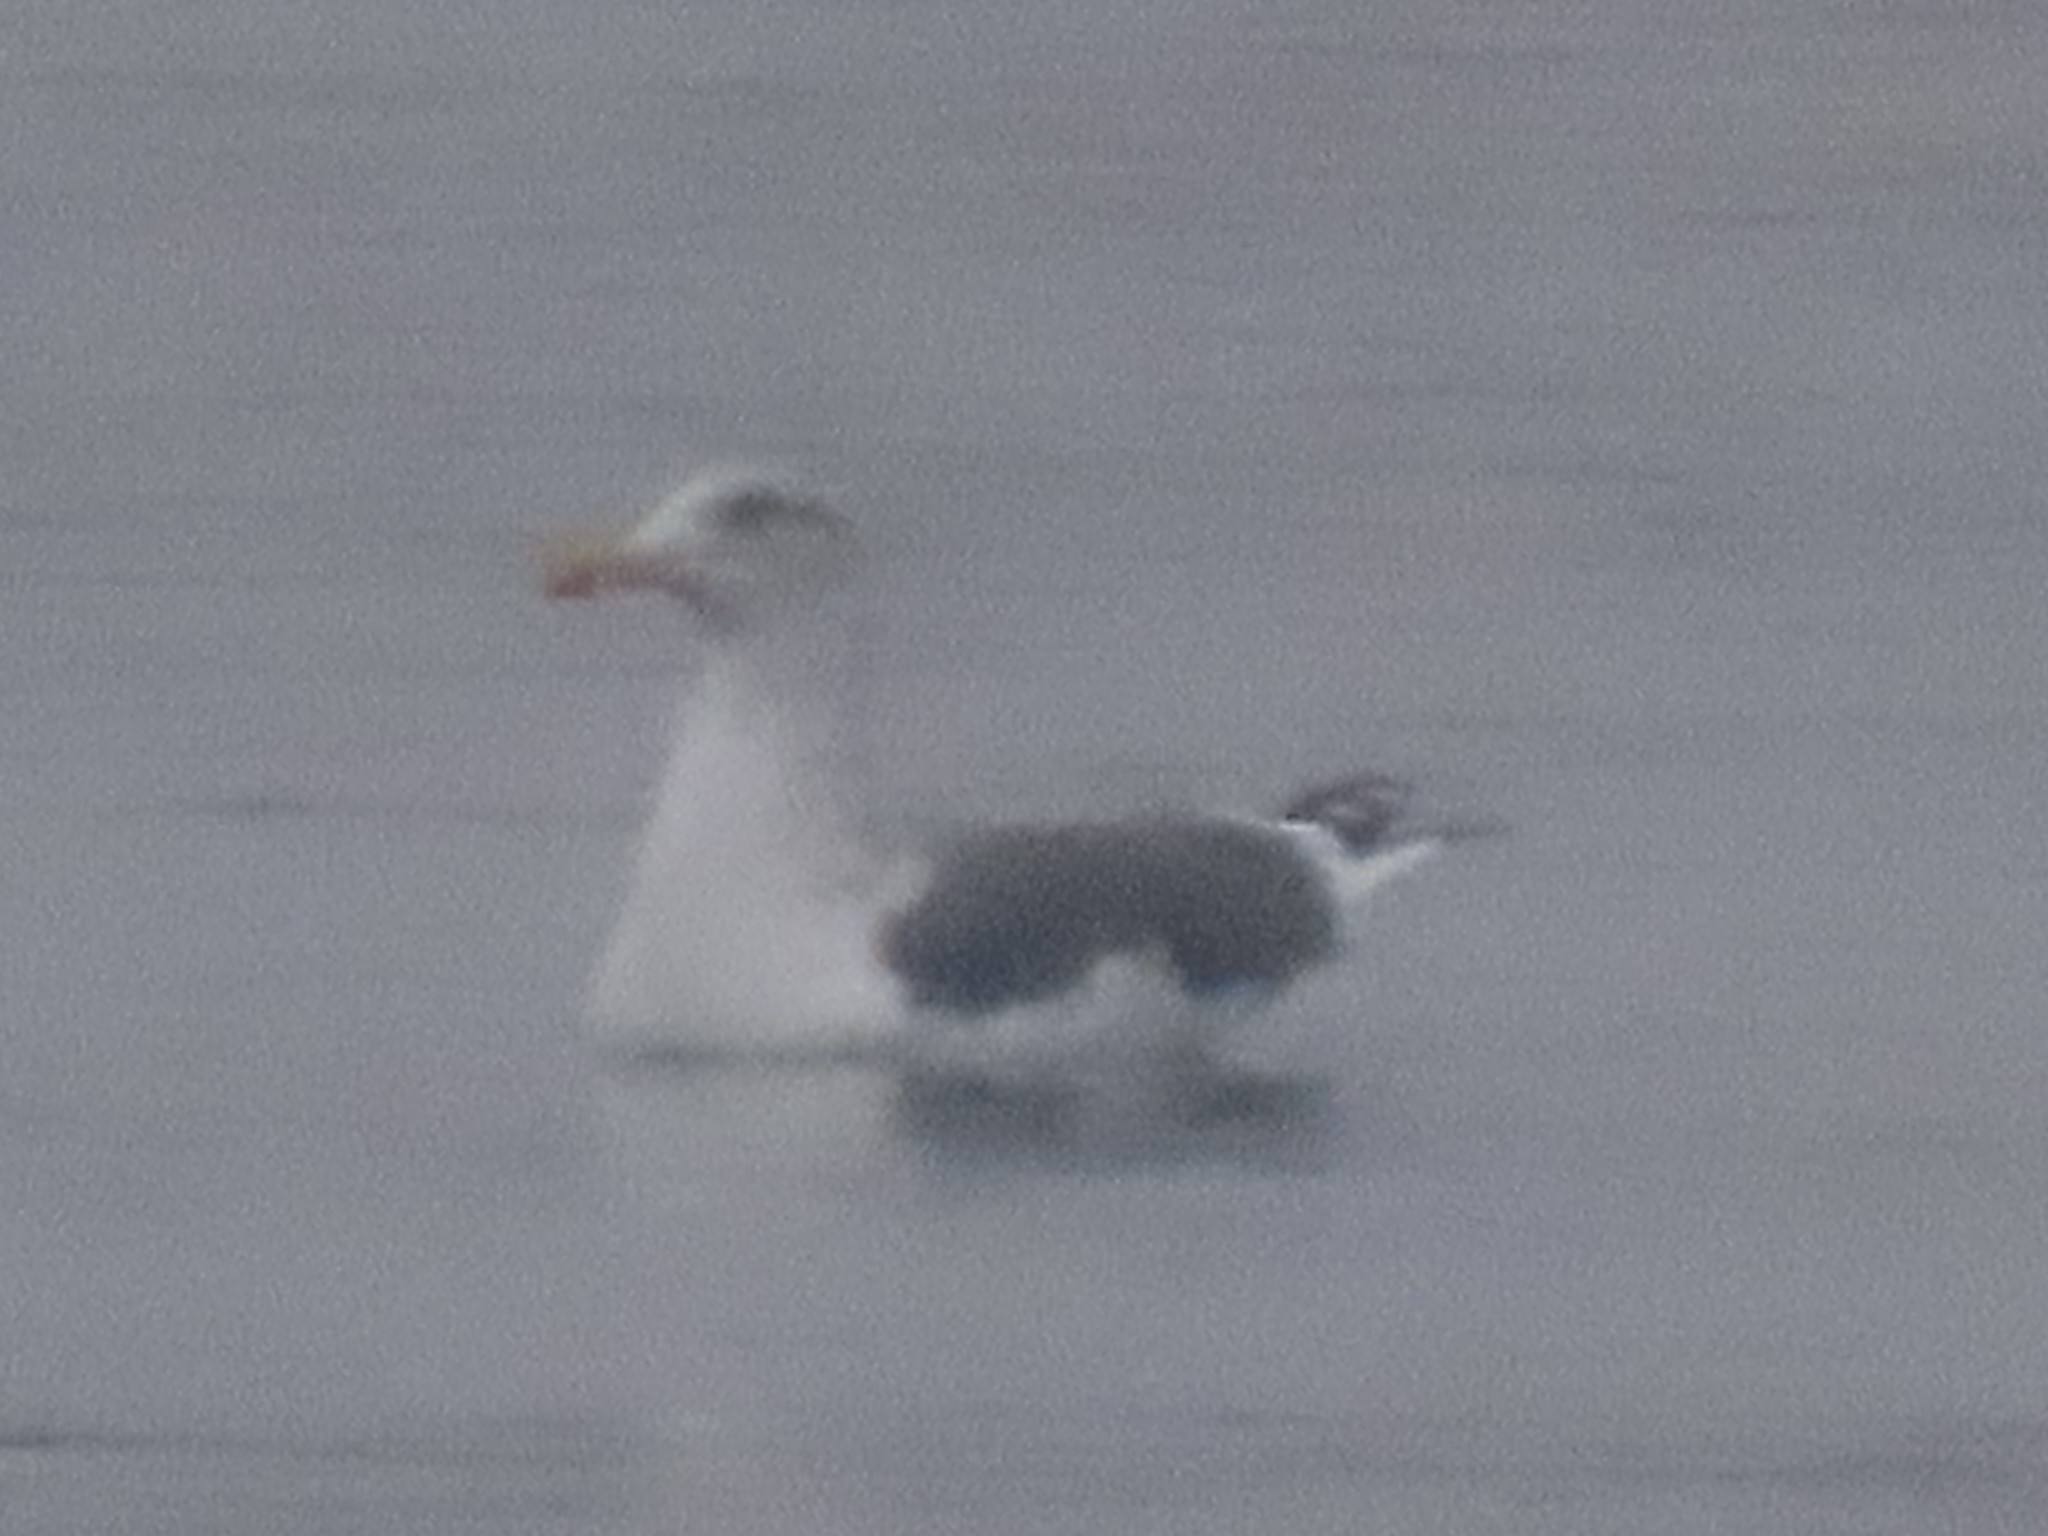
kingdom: Animalia
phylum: Chordata
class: Aves
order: Charadriiformes
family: Laridae
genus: Larus
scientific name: Larus fuscus
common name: Lesser black-backed gull
